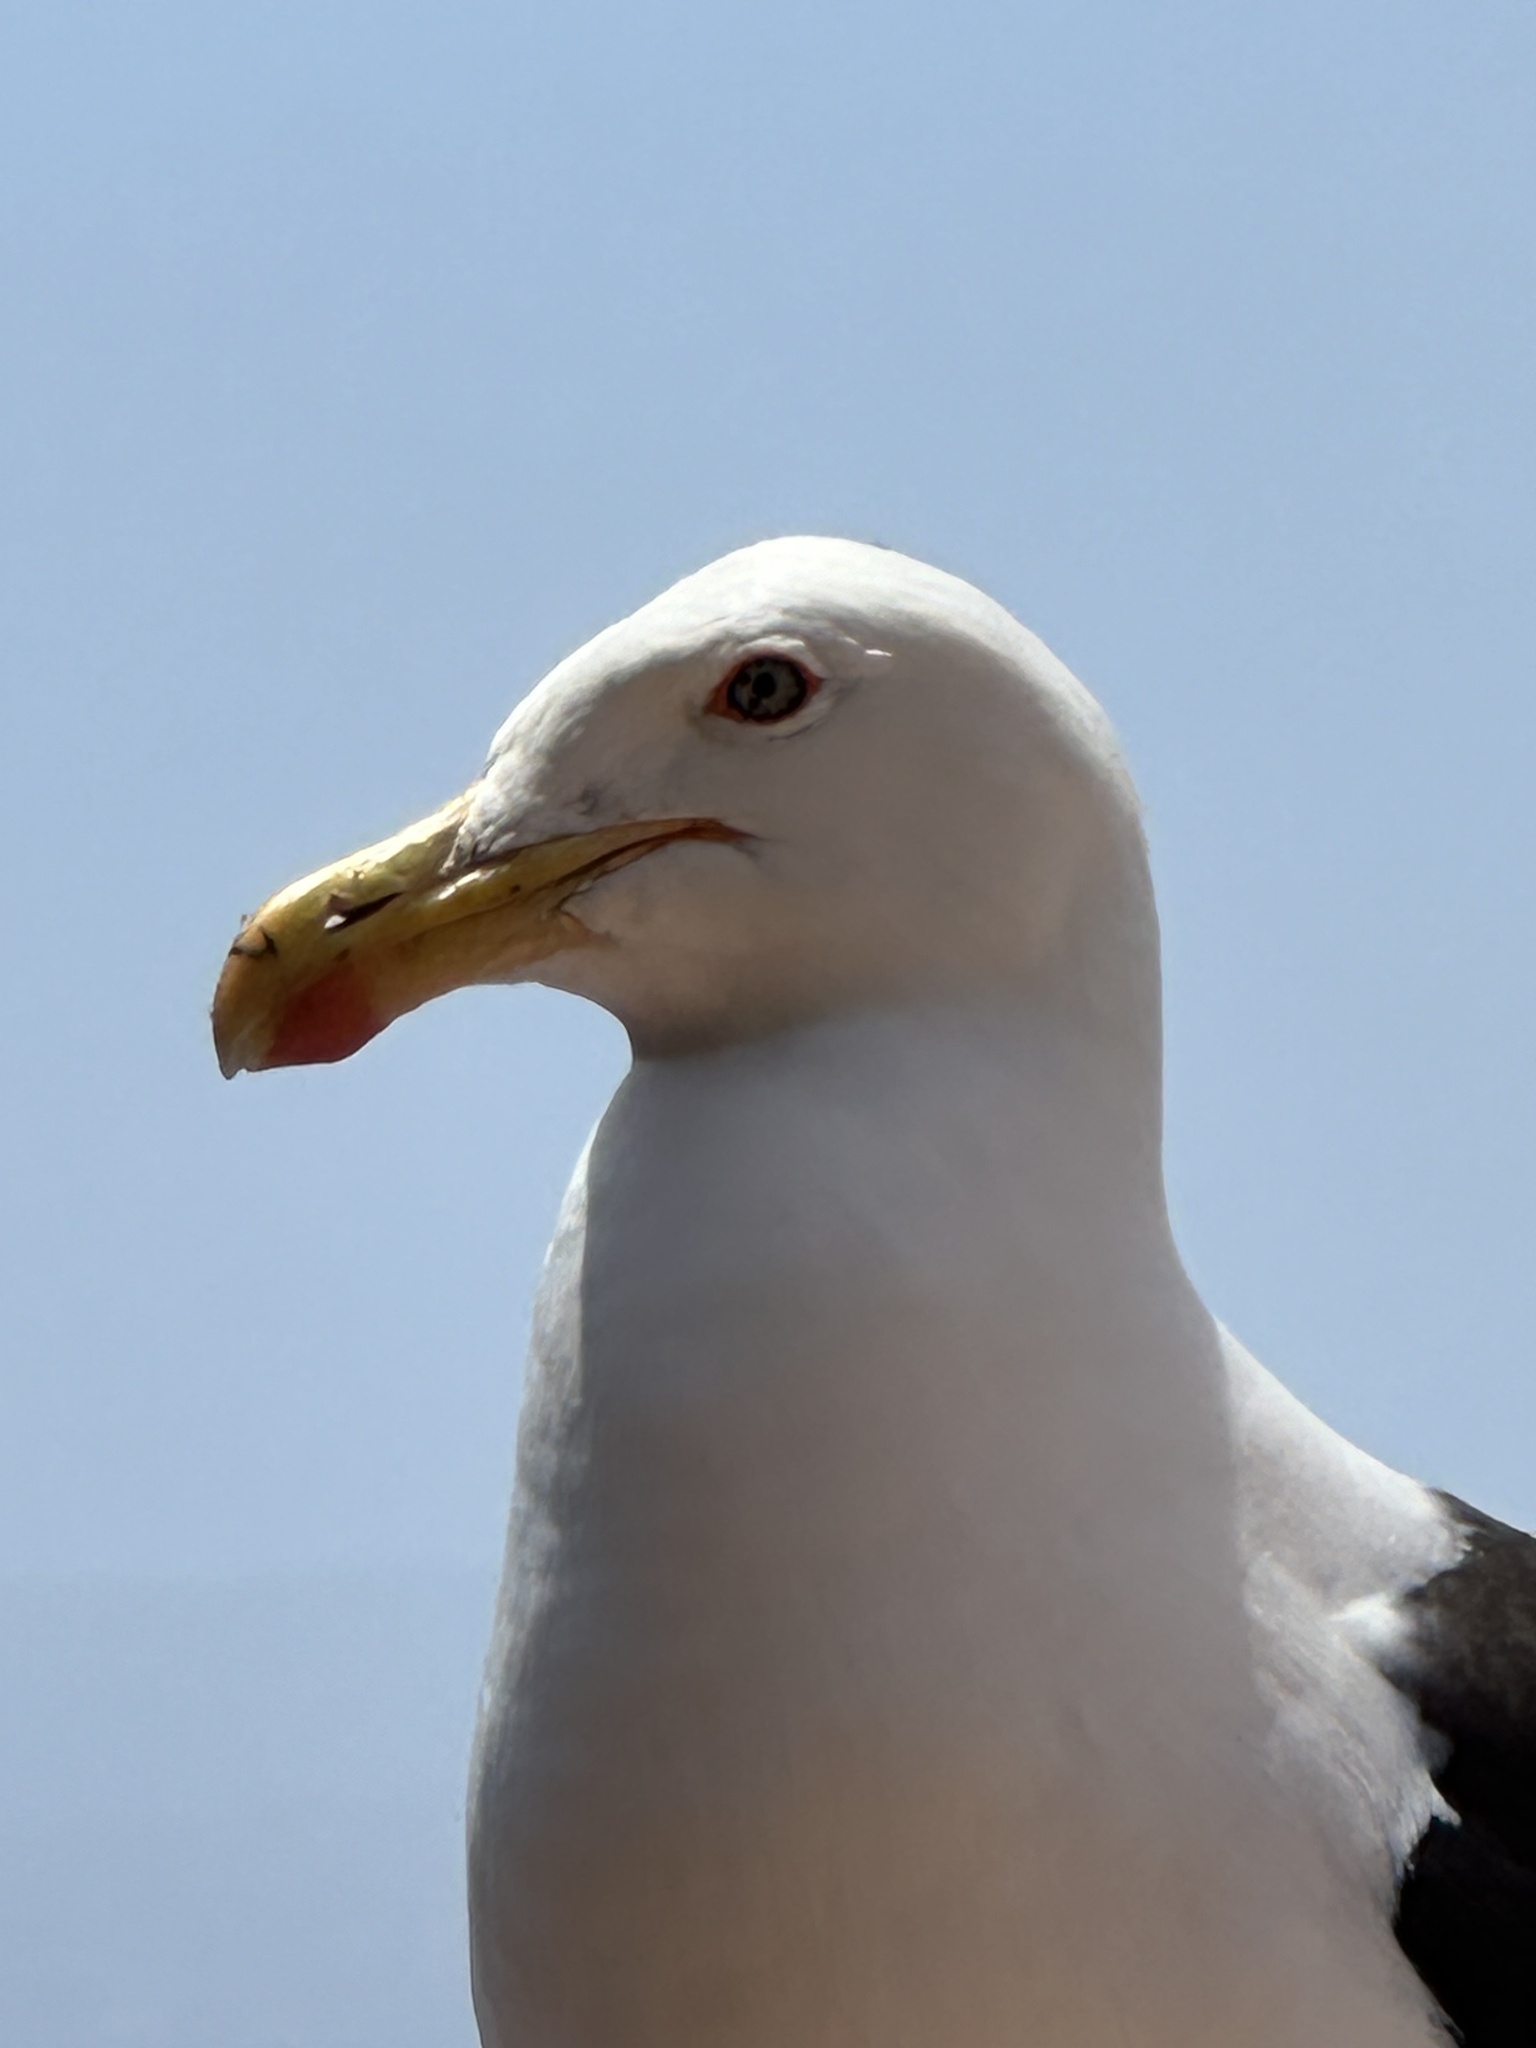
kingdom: Animalia
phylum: Chordata
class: Aves
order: Charadriiformes
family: Laridae
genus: Larus
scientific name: Larus dominicanus
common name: Kelp gull
